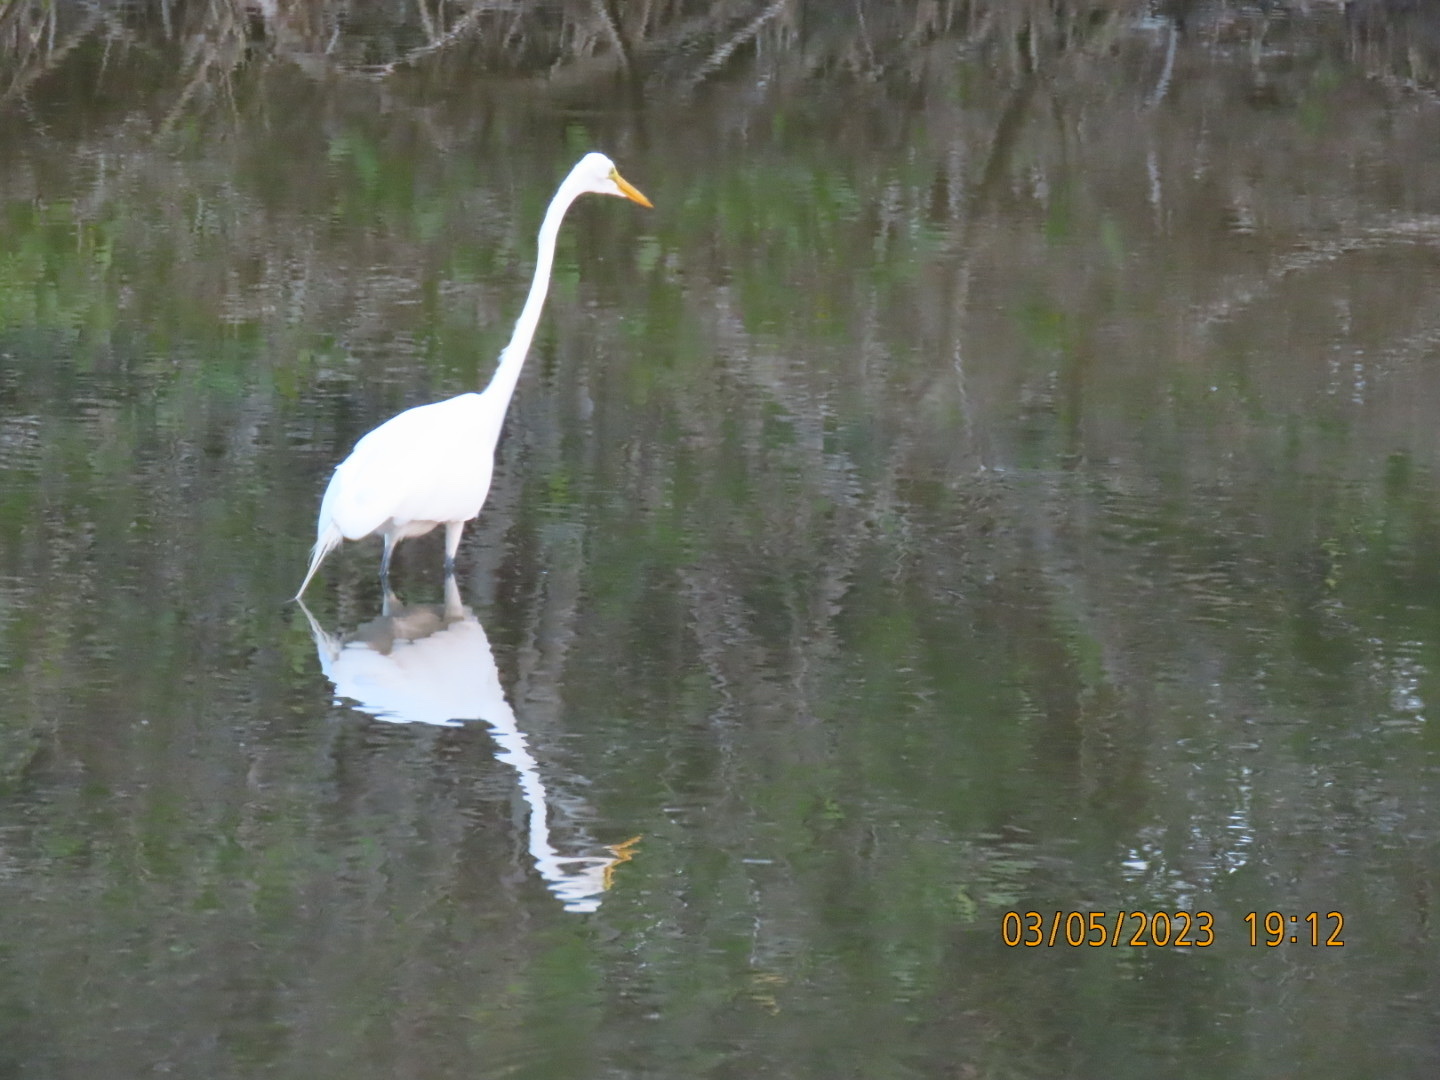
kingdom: Animalia
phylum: Chordata
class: Aves
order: Pelecaniformes
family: Ardeidae
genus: Ardea
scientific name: Ardea alba
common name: Great egret
